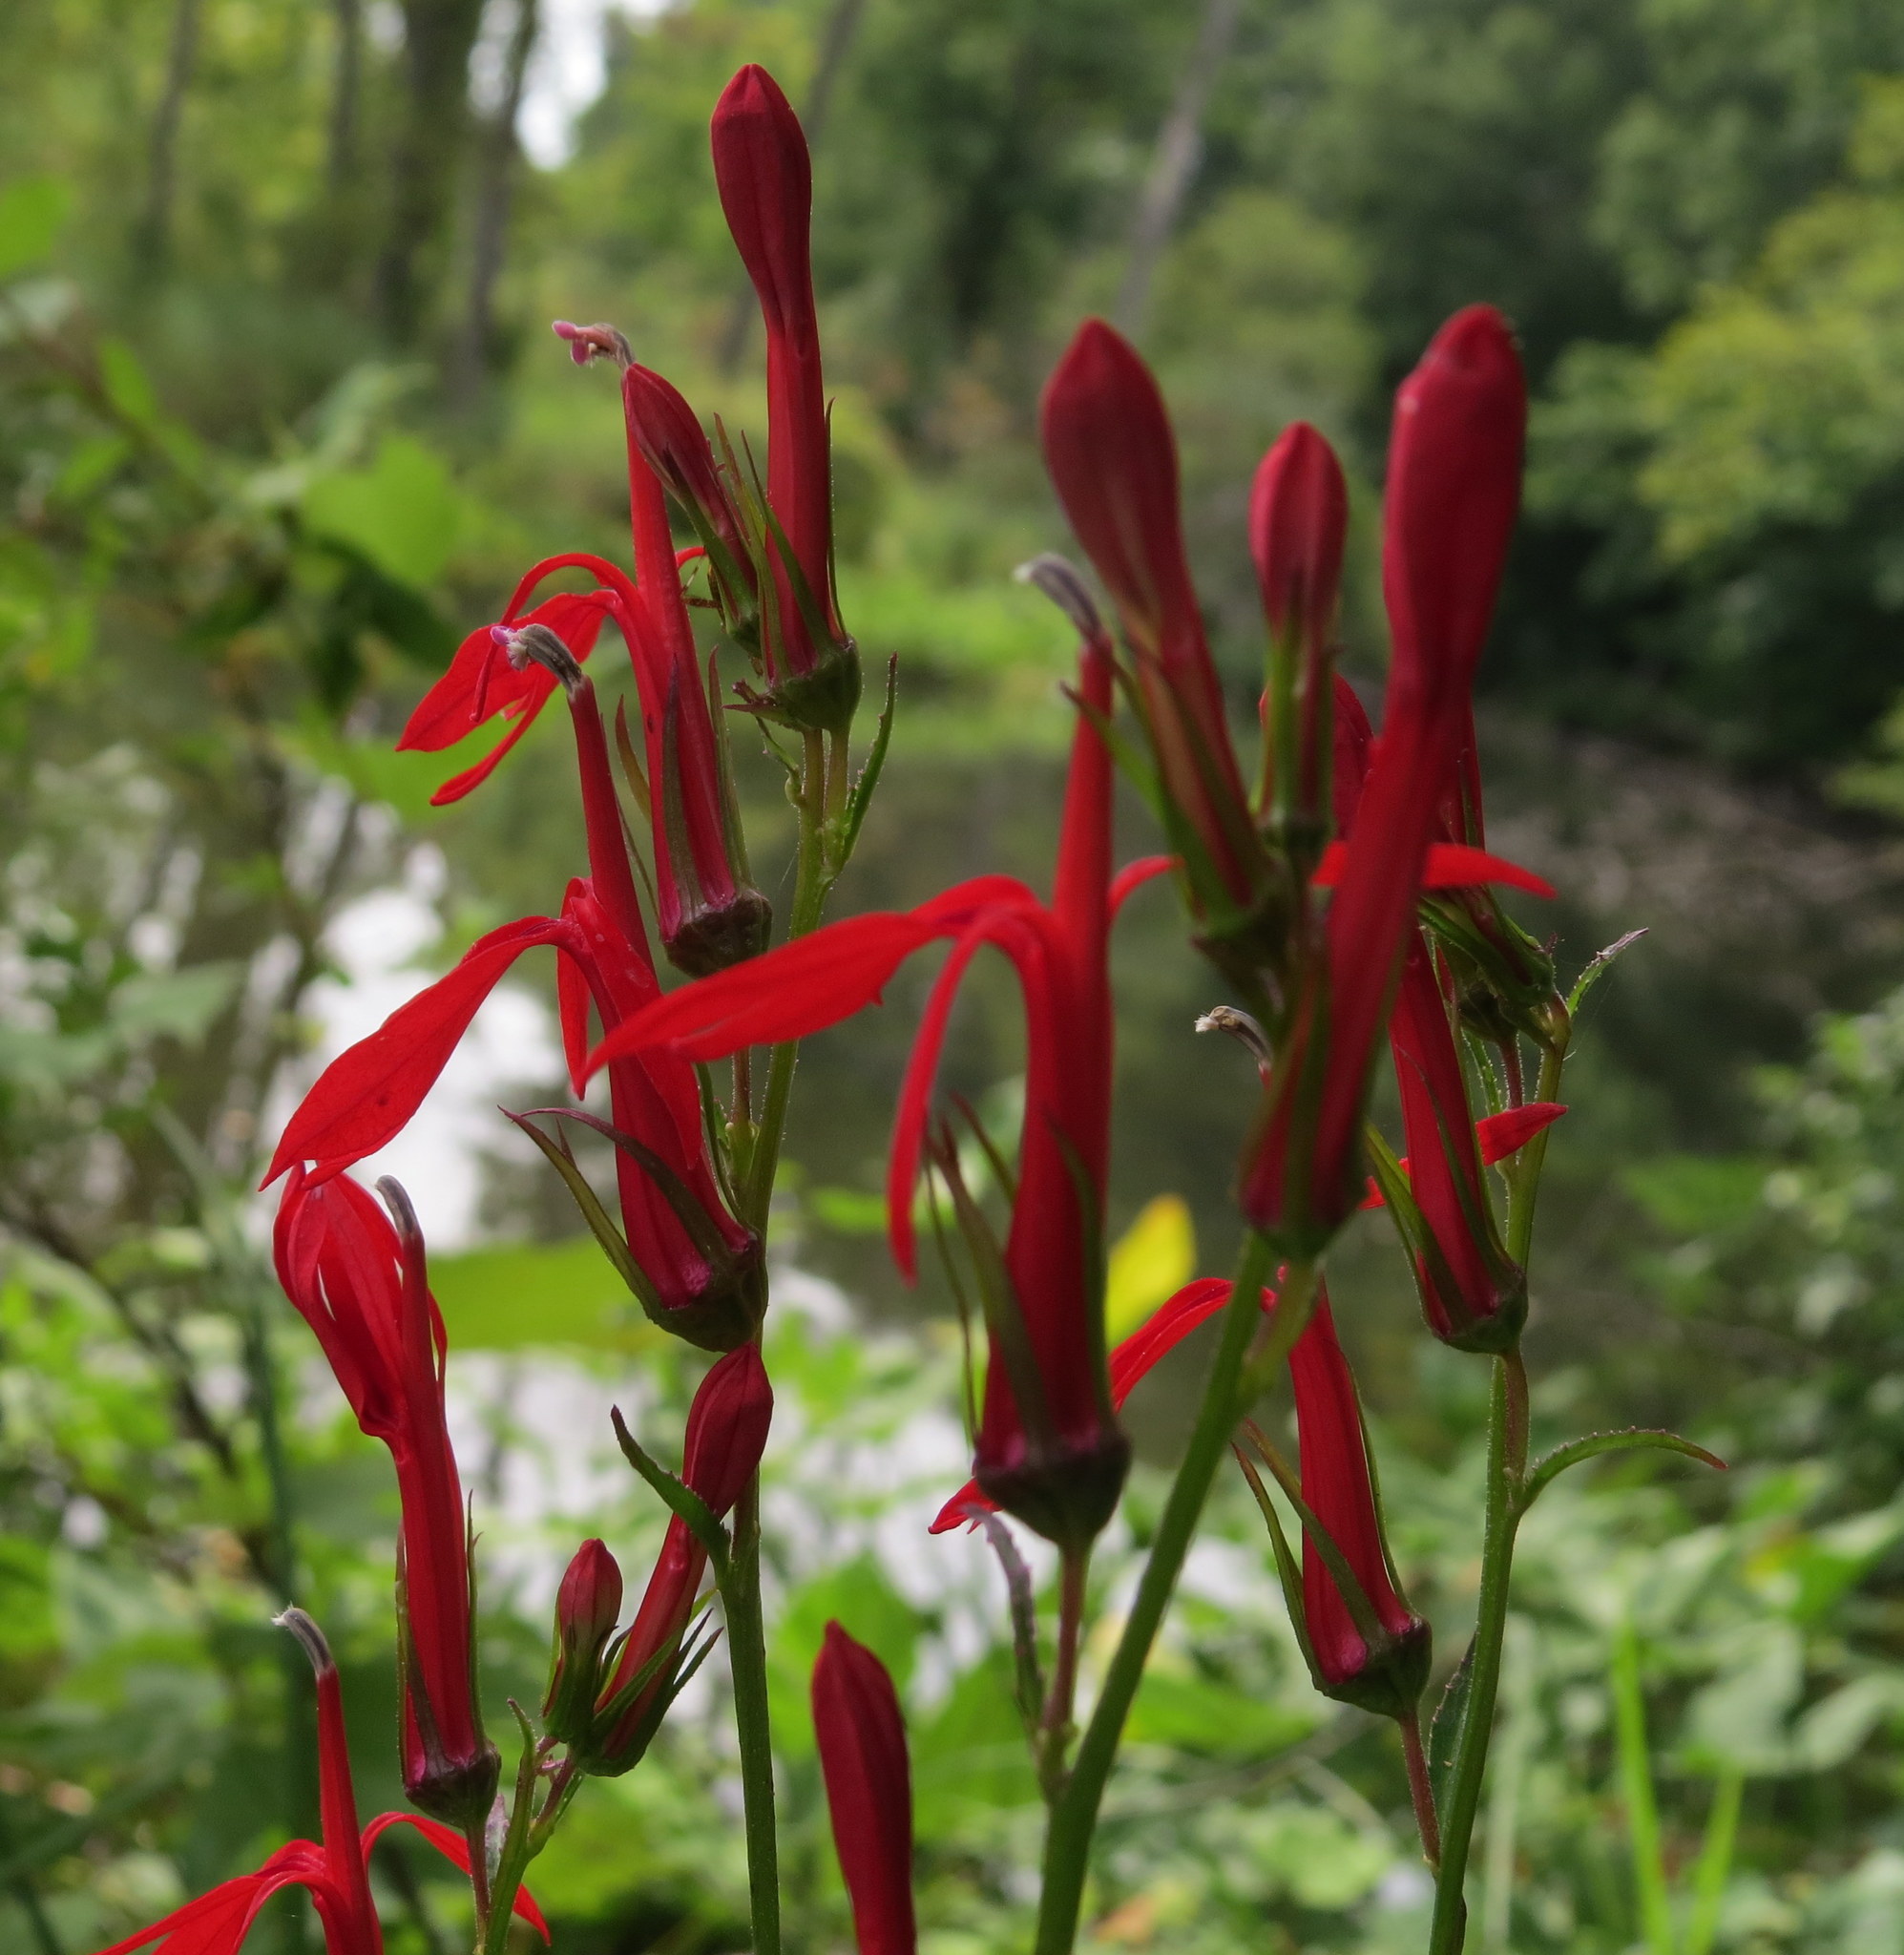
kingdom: Plantae
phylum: Tracheophyta
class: Magnoliopsida
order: Asterales
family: Campanulaceae
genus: Lobelia
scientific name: Lobelia cardinalis
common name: Cardinal flower
